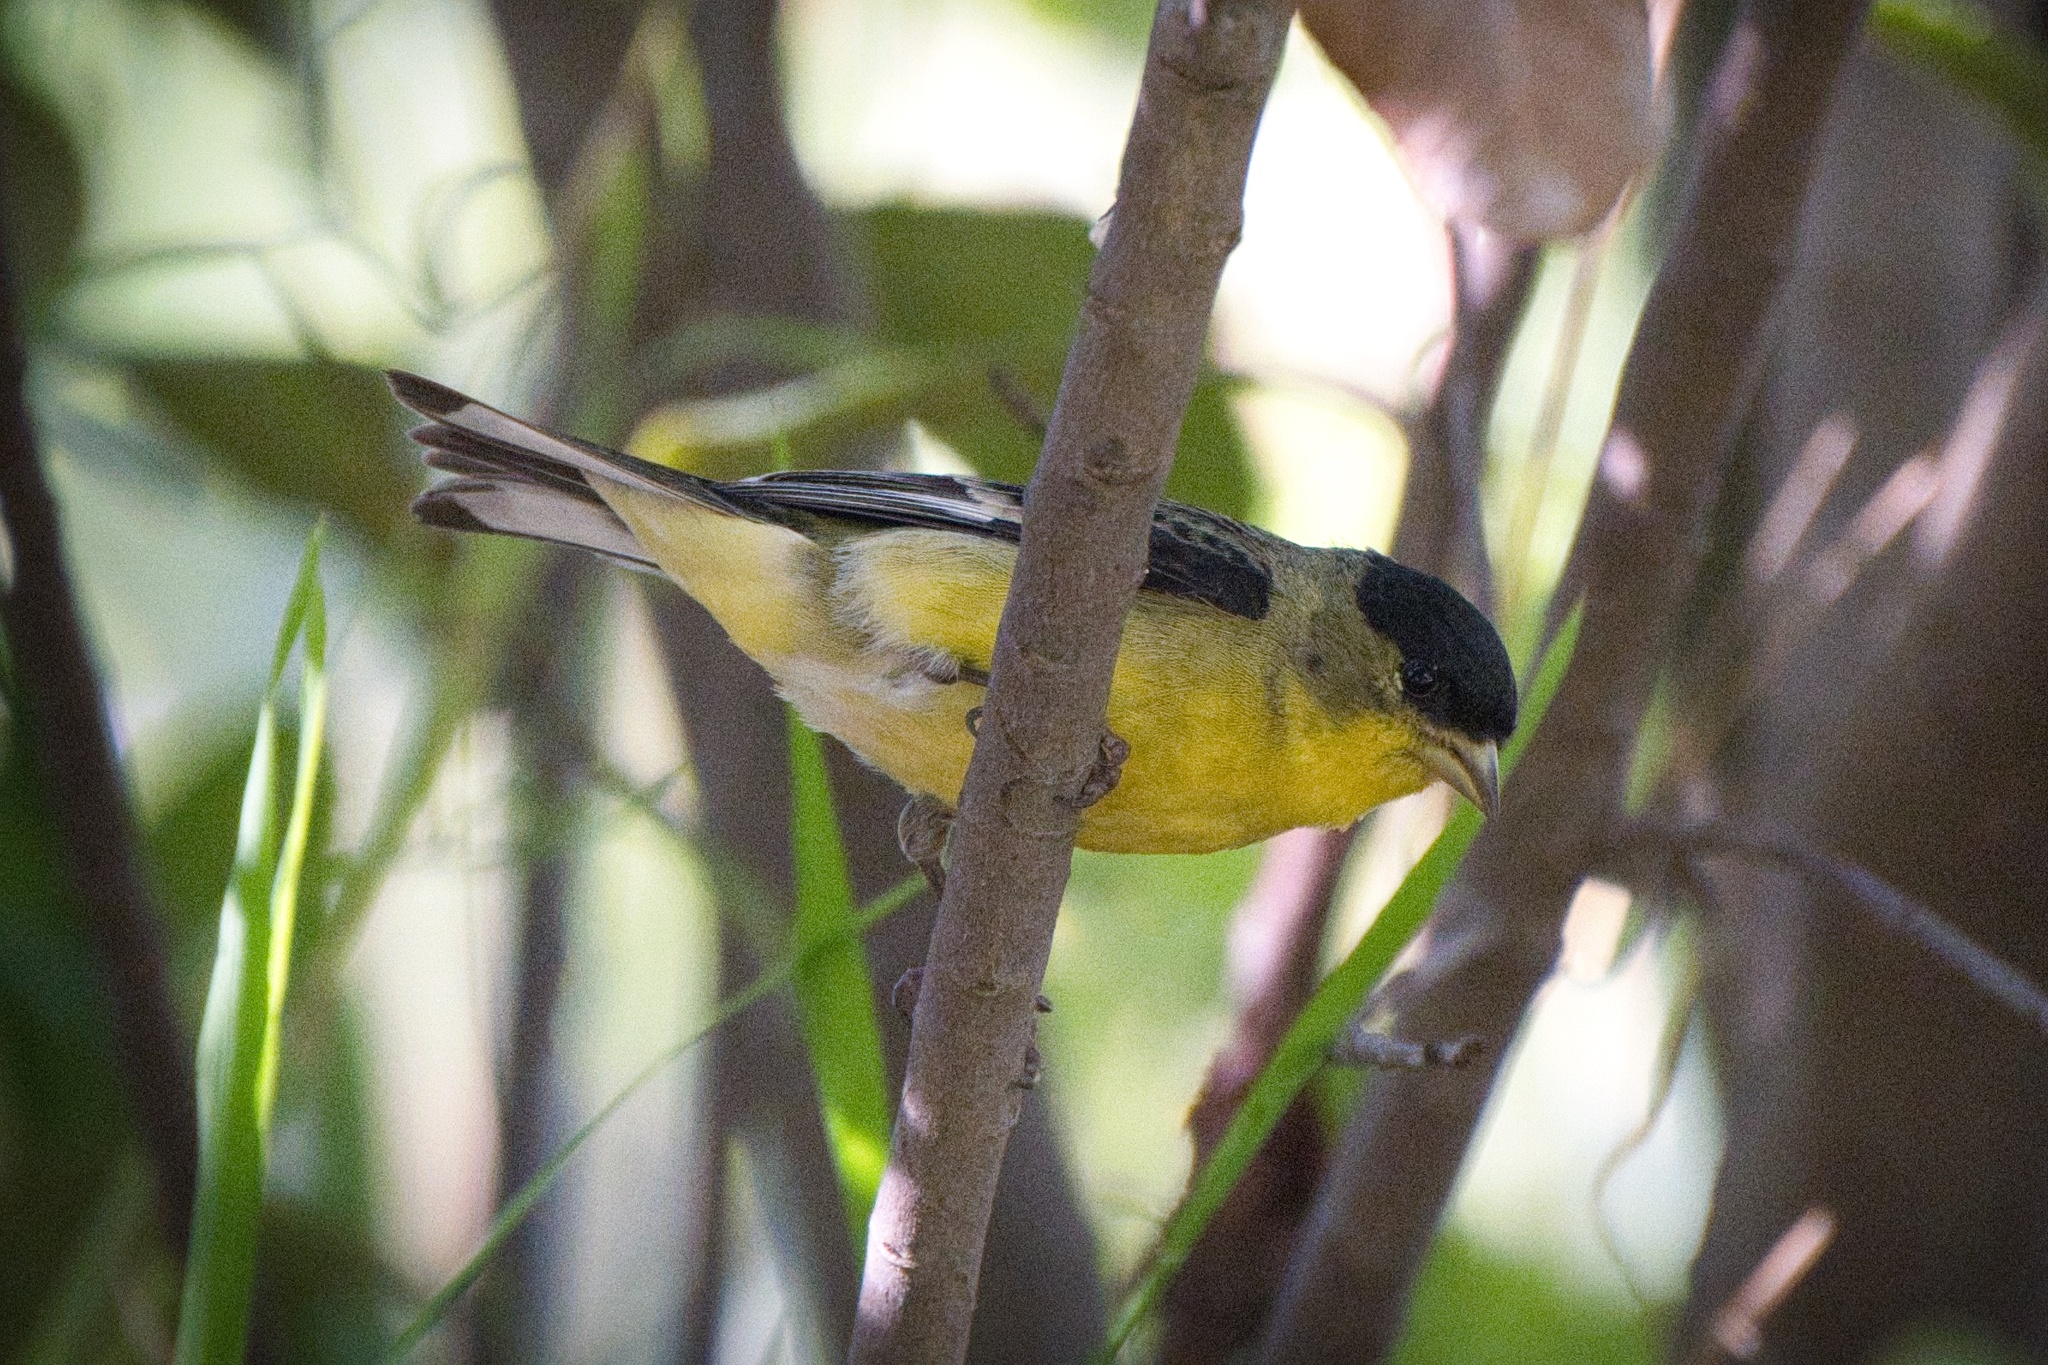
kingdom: Animalia
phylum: Chordata
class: Aves
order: Passeriformes
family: Fringillidae
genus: Spinus
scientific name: Spinus psaltria
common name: Lesser goldfinch
